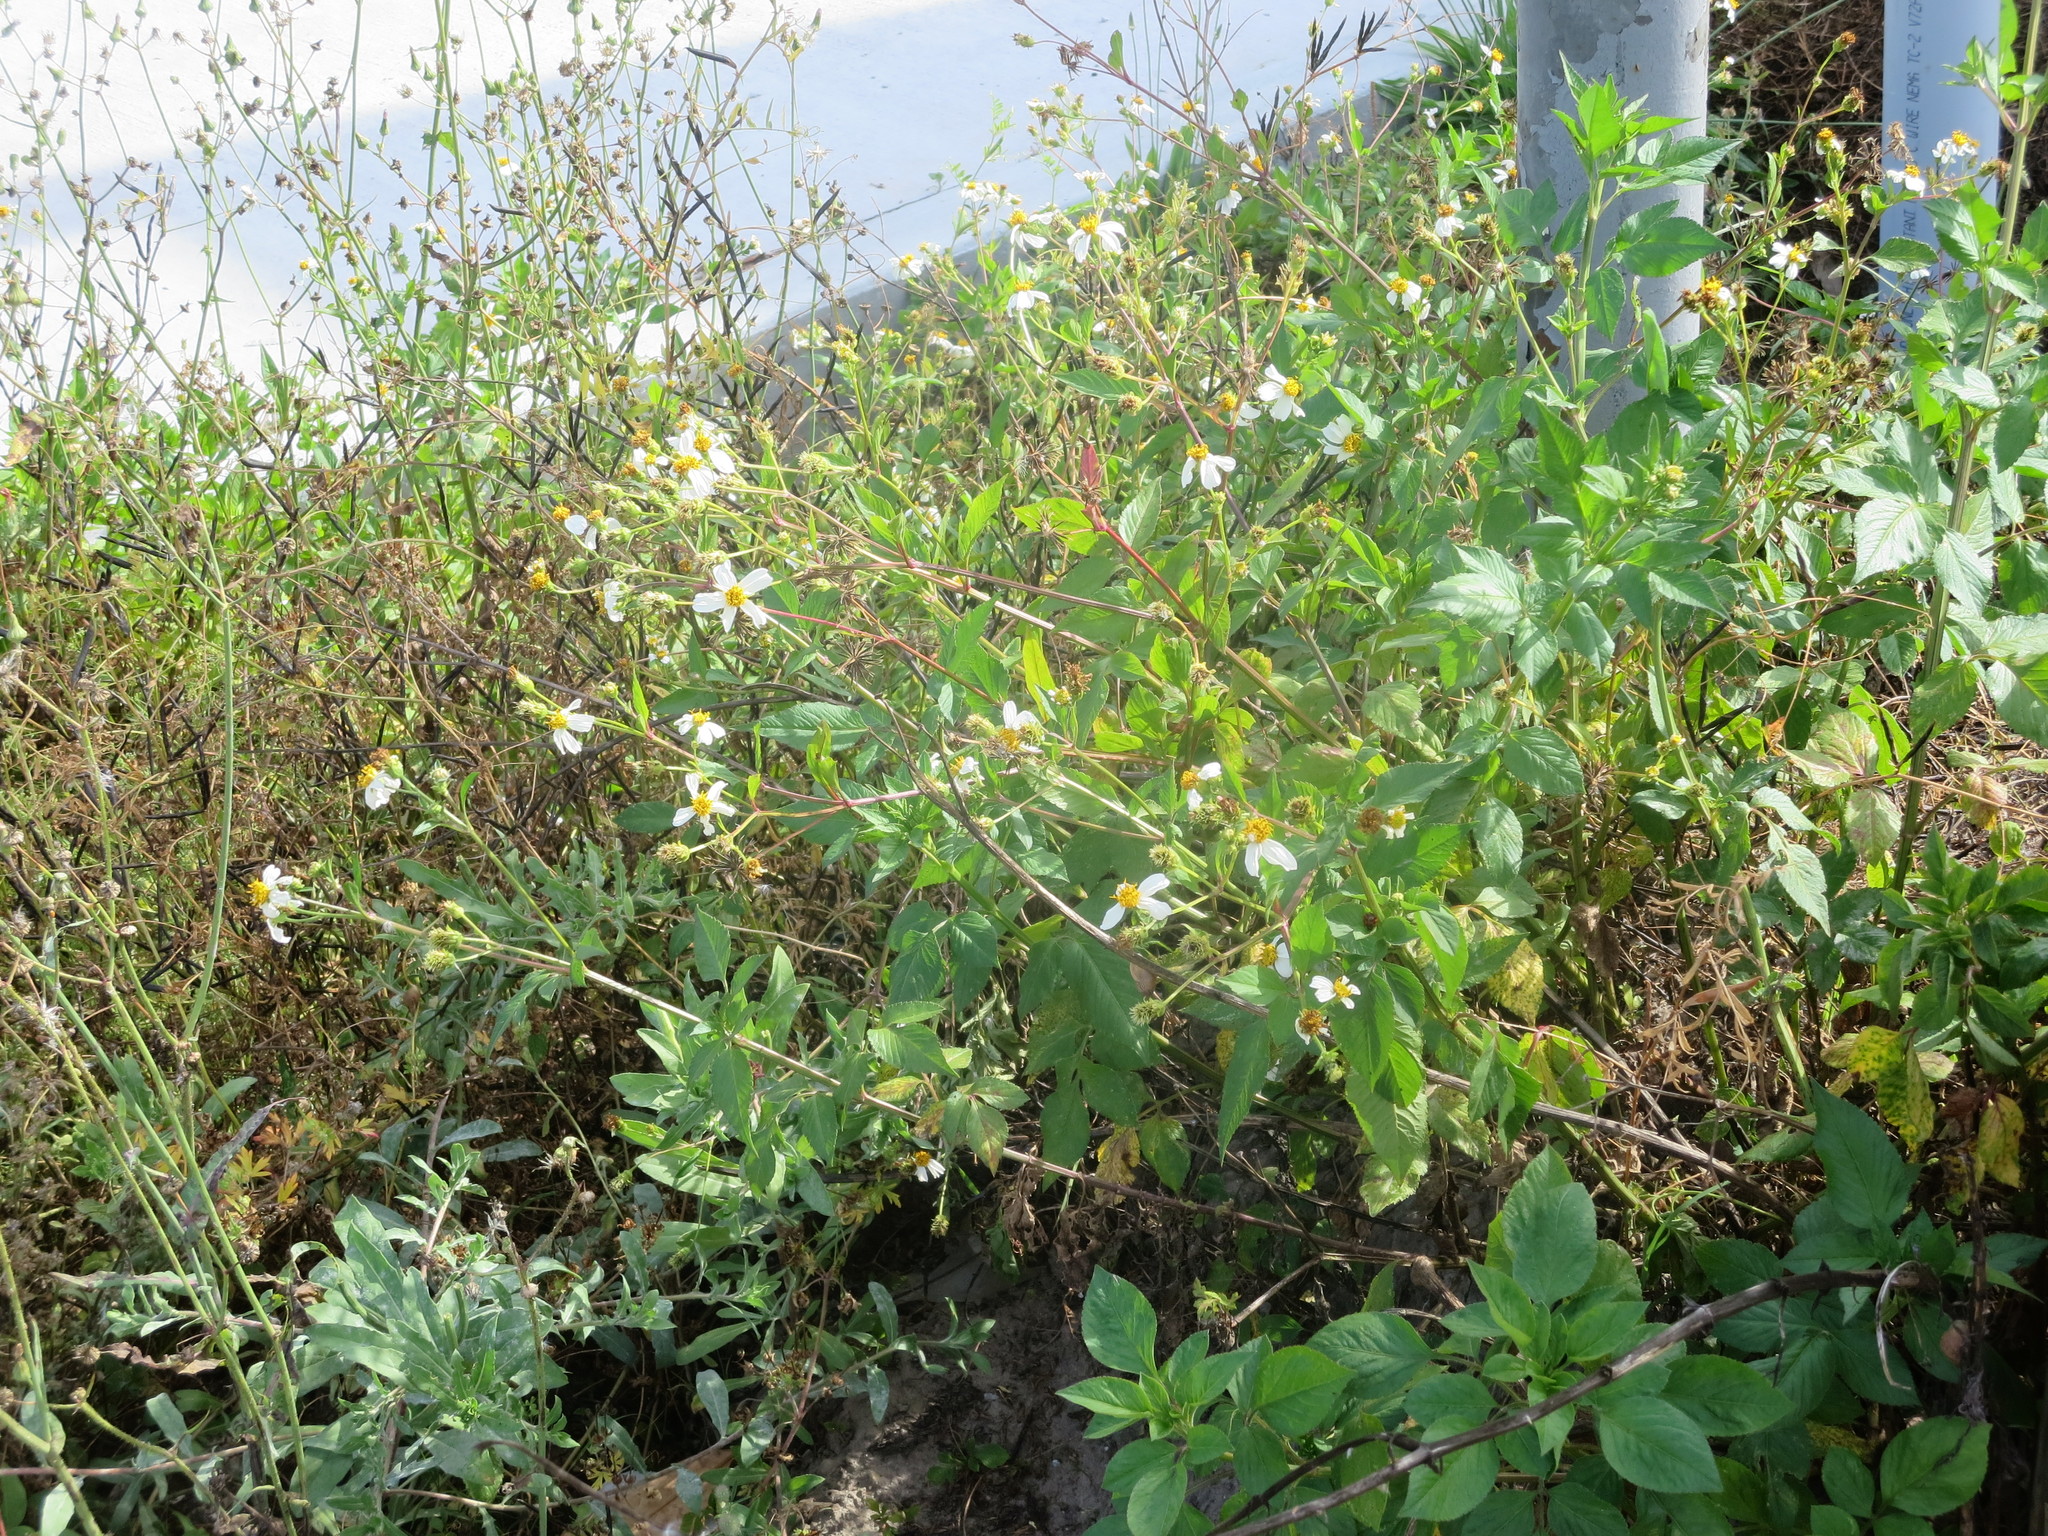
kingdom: Plantae
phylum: Tracheophyta
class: Magnoliopsida
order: Asterales
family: Asteraceae
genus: Bidens
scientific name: Bidens alba
